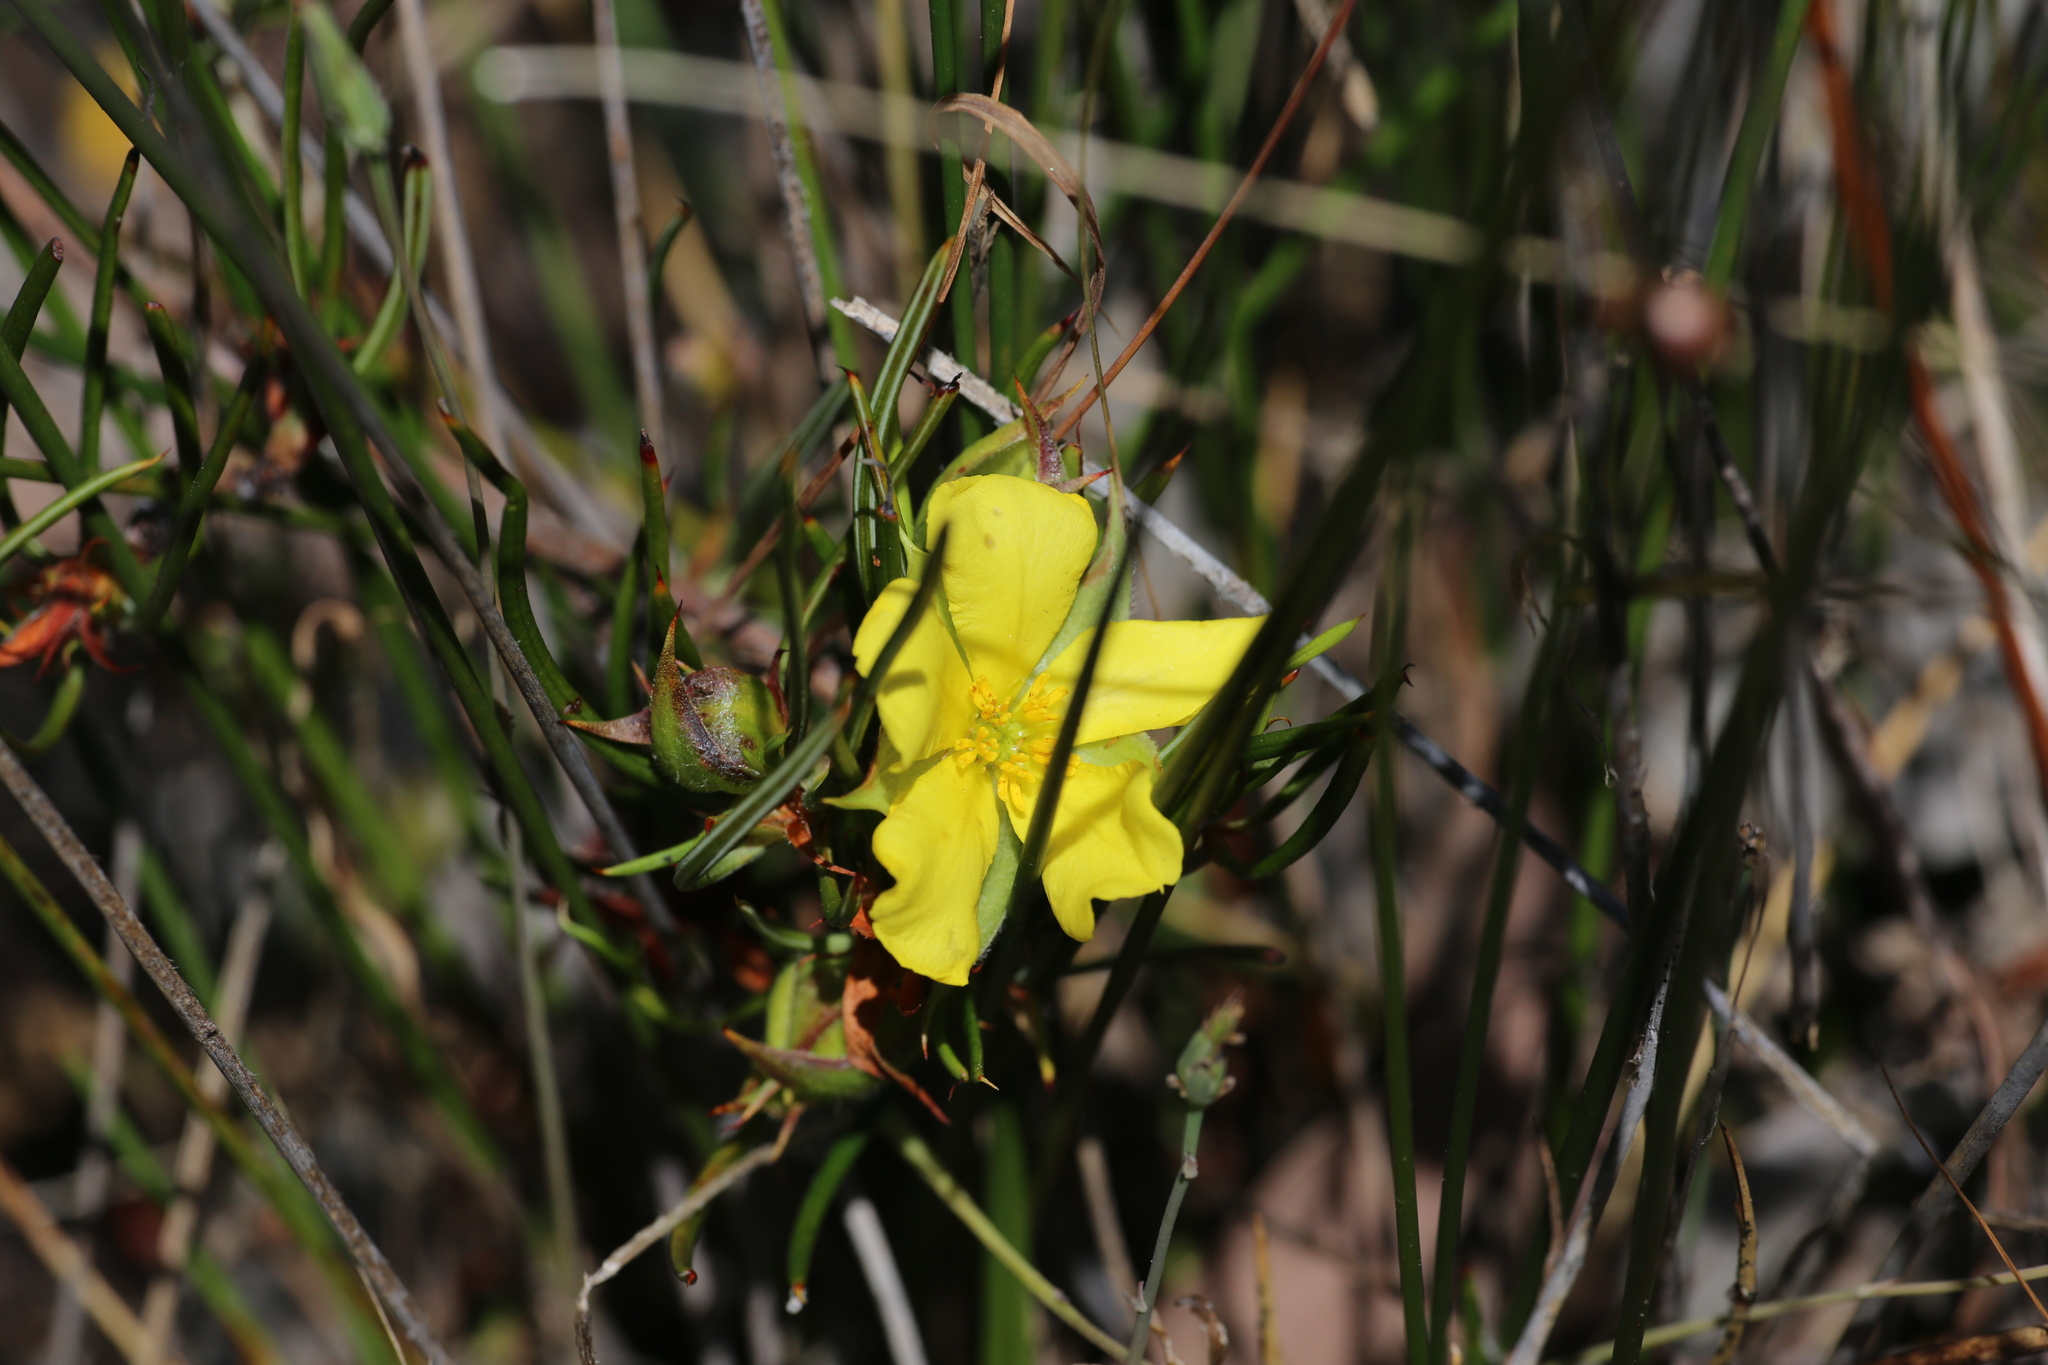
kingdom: Plantae
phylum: Tracheophyta
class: Magnoliopsida
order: Dilleniales
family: Dilleniaceae
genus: Hibbertia
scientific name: Hibbertia striata
